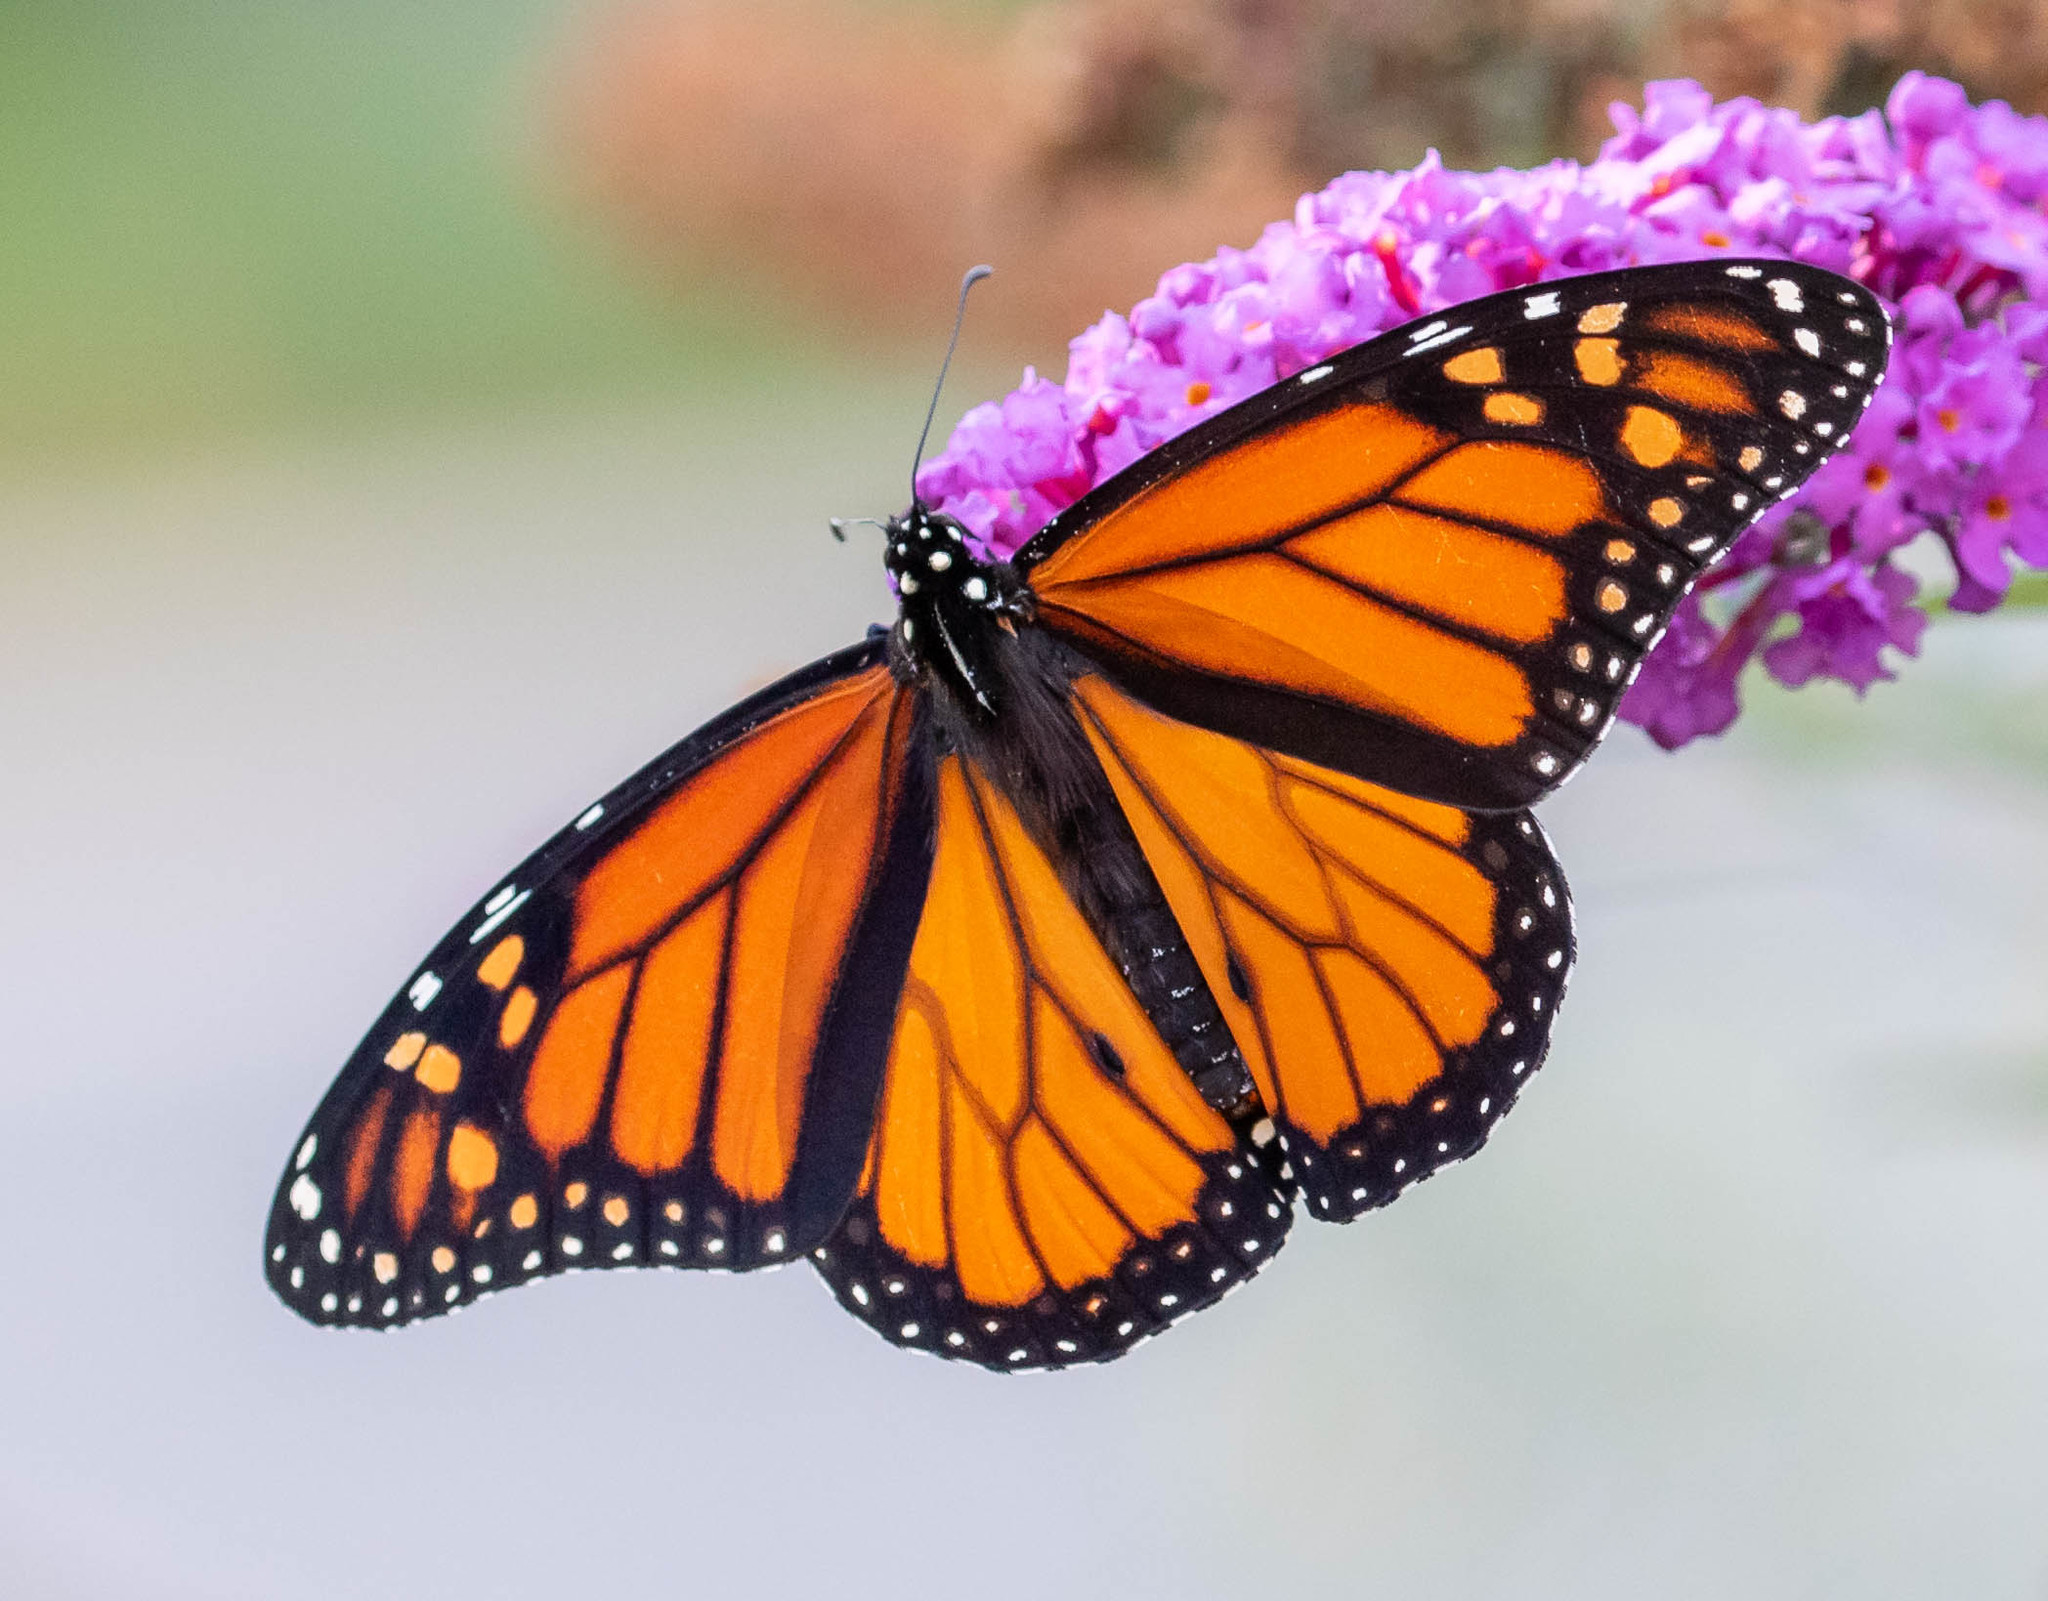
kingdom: Animalia
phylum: Arthropoda
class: Insecta
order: Lepidoptera
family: Nymphalidae
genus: Danaus
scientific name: Danaus plexippus
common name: Monarch
